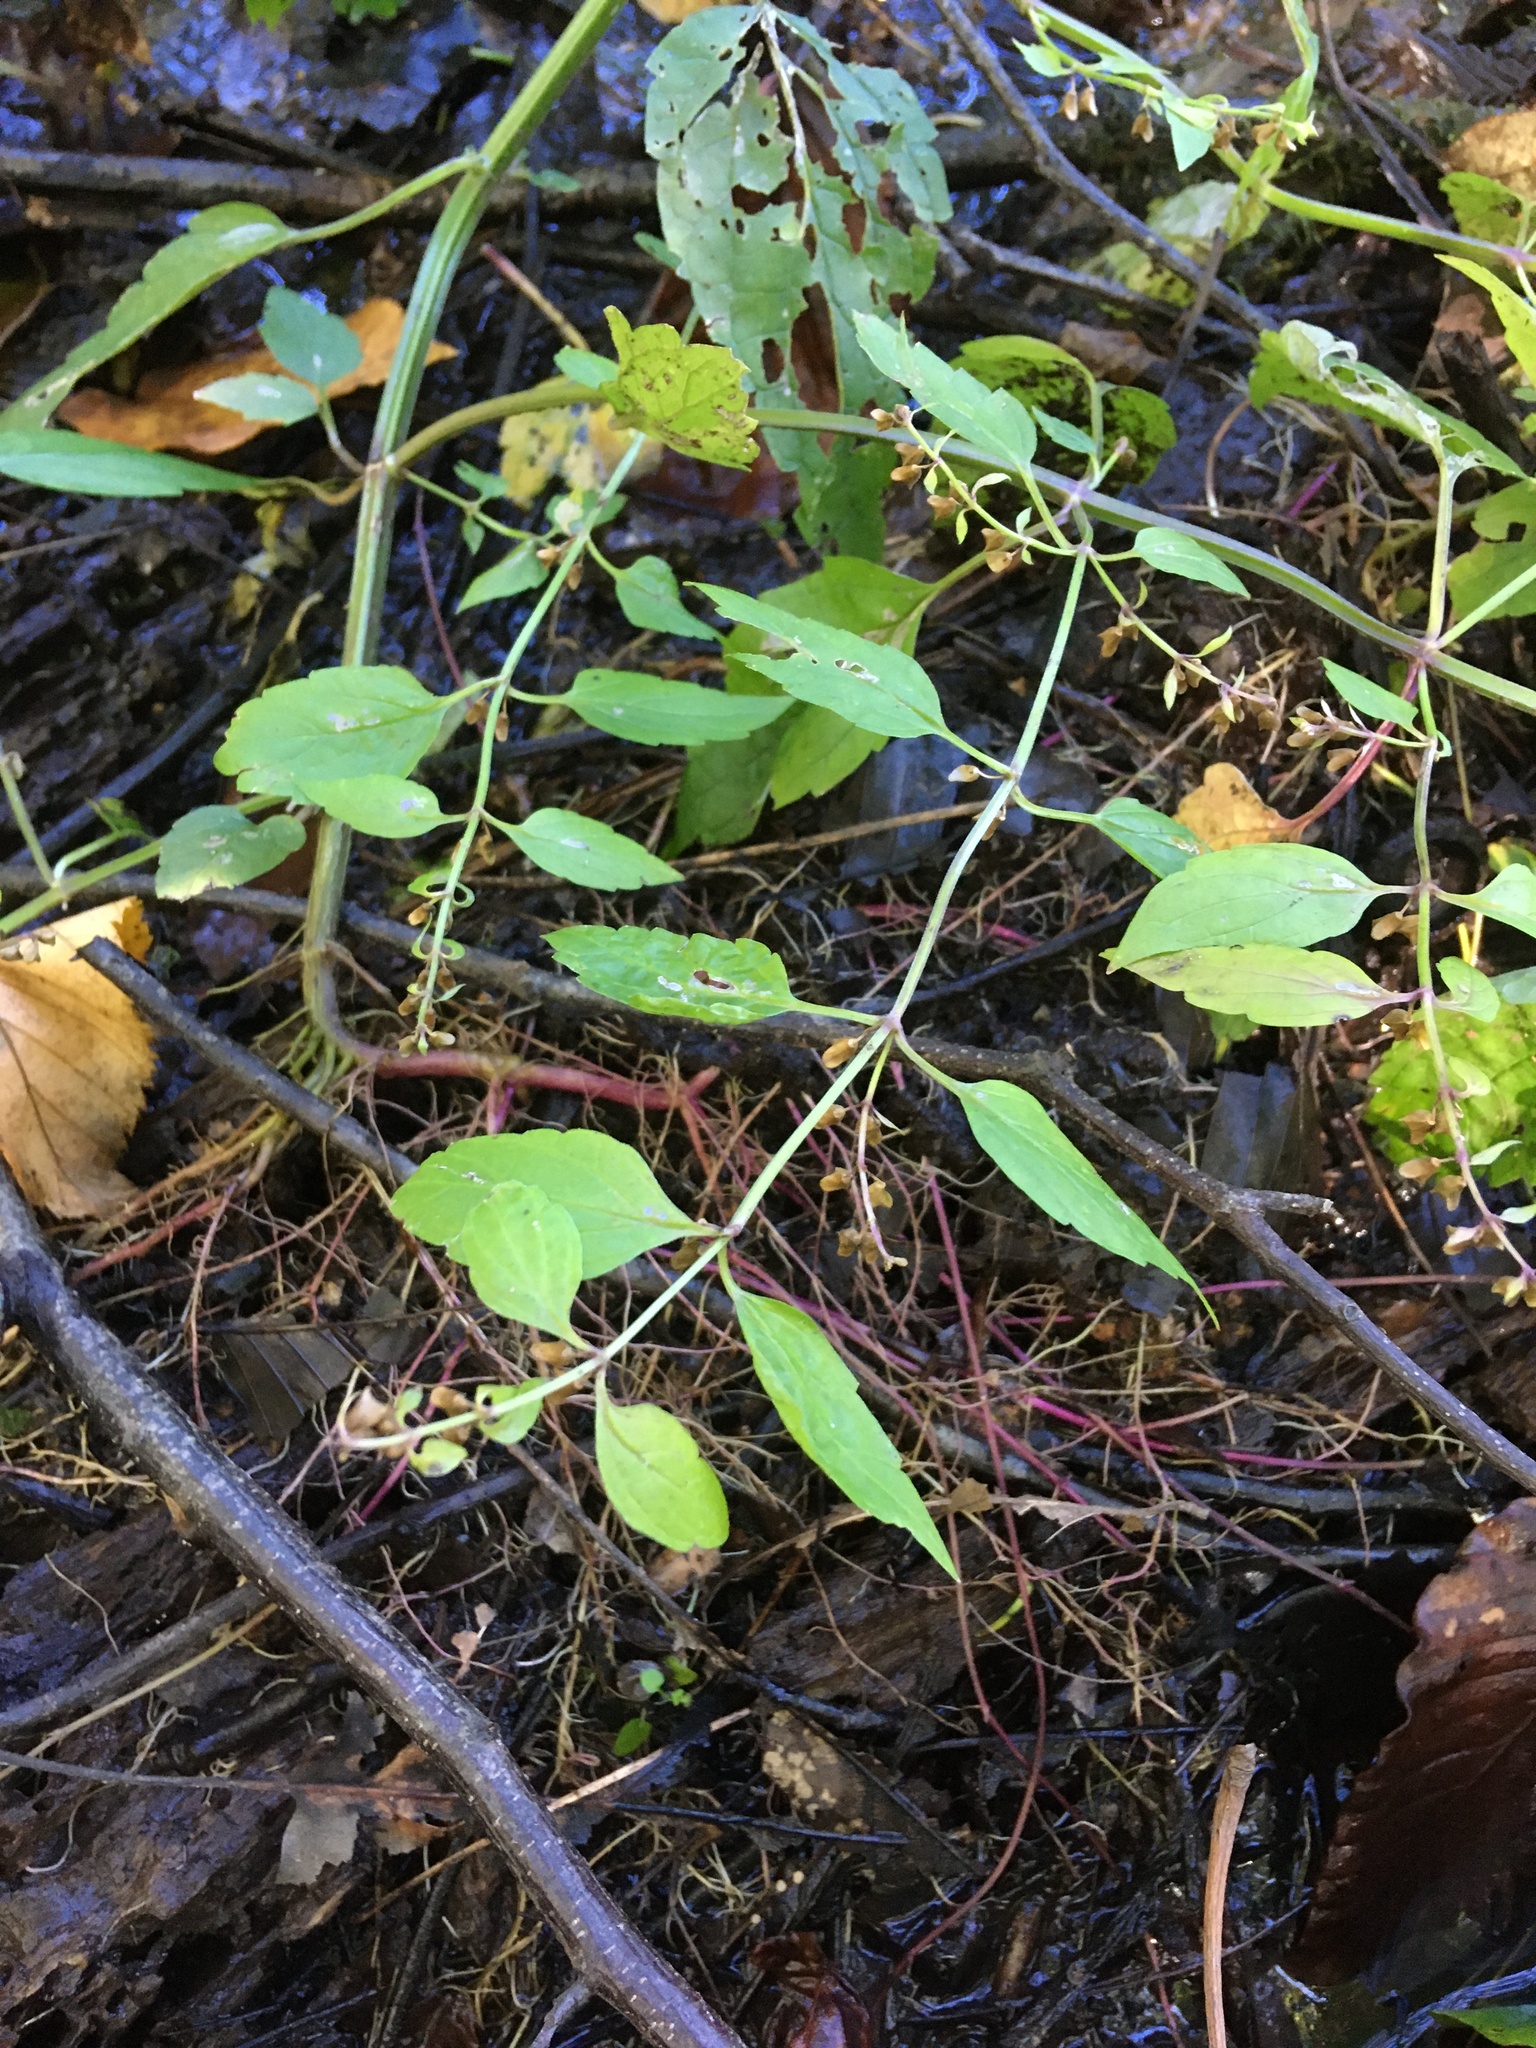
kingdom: Plantae
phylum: Tracheophyta
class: Magnoliopsida
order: Lamiales
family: Lamiaceae
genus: Scutellaria
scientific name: Scutellaria lateriflora
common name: Blue skullcap
